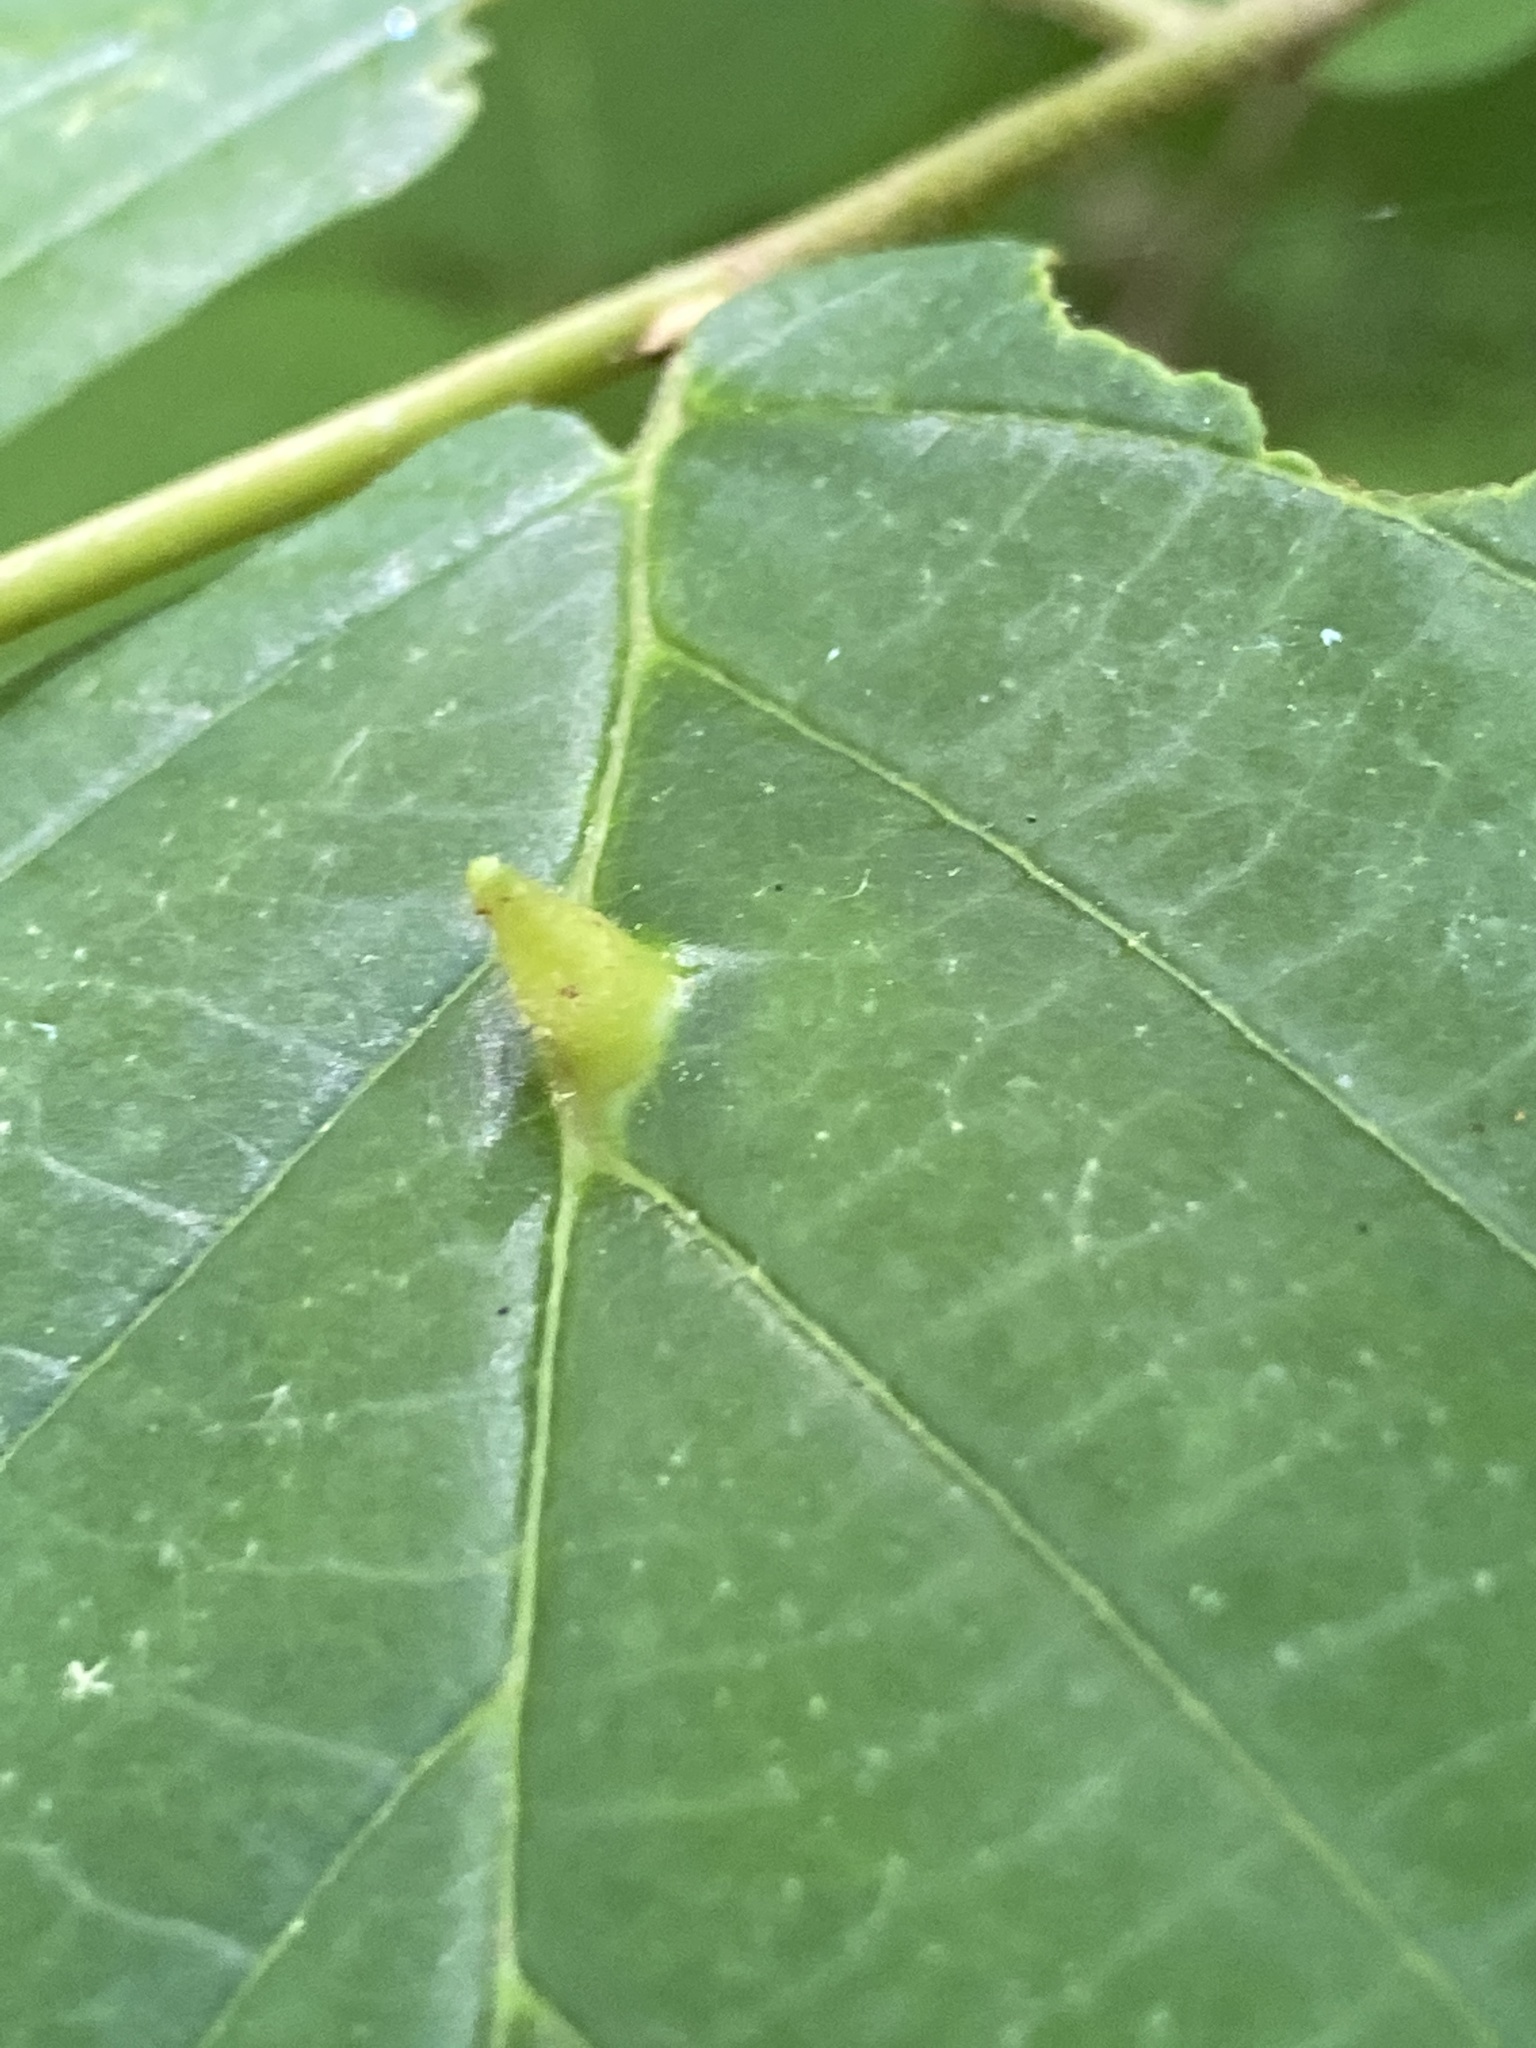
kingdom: Animalia
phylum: Arthropoda
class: Insecta
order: Hemiptera
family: Aphididae
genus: Hormaphis
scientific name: Hormaphis hamamelidis
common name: Witch-hazel cone gall aphid
